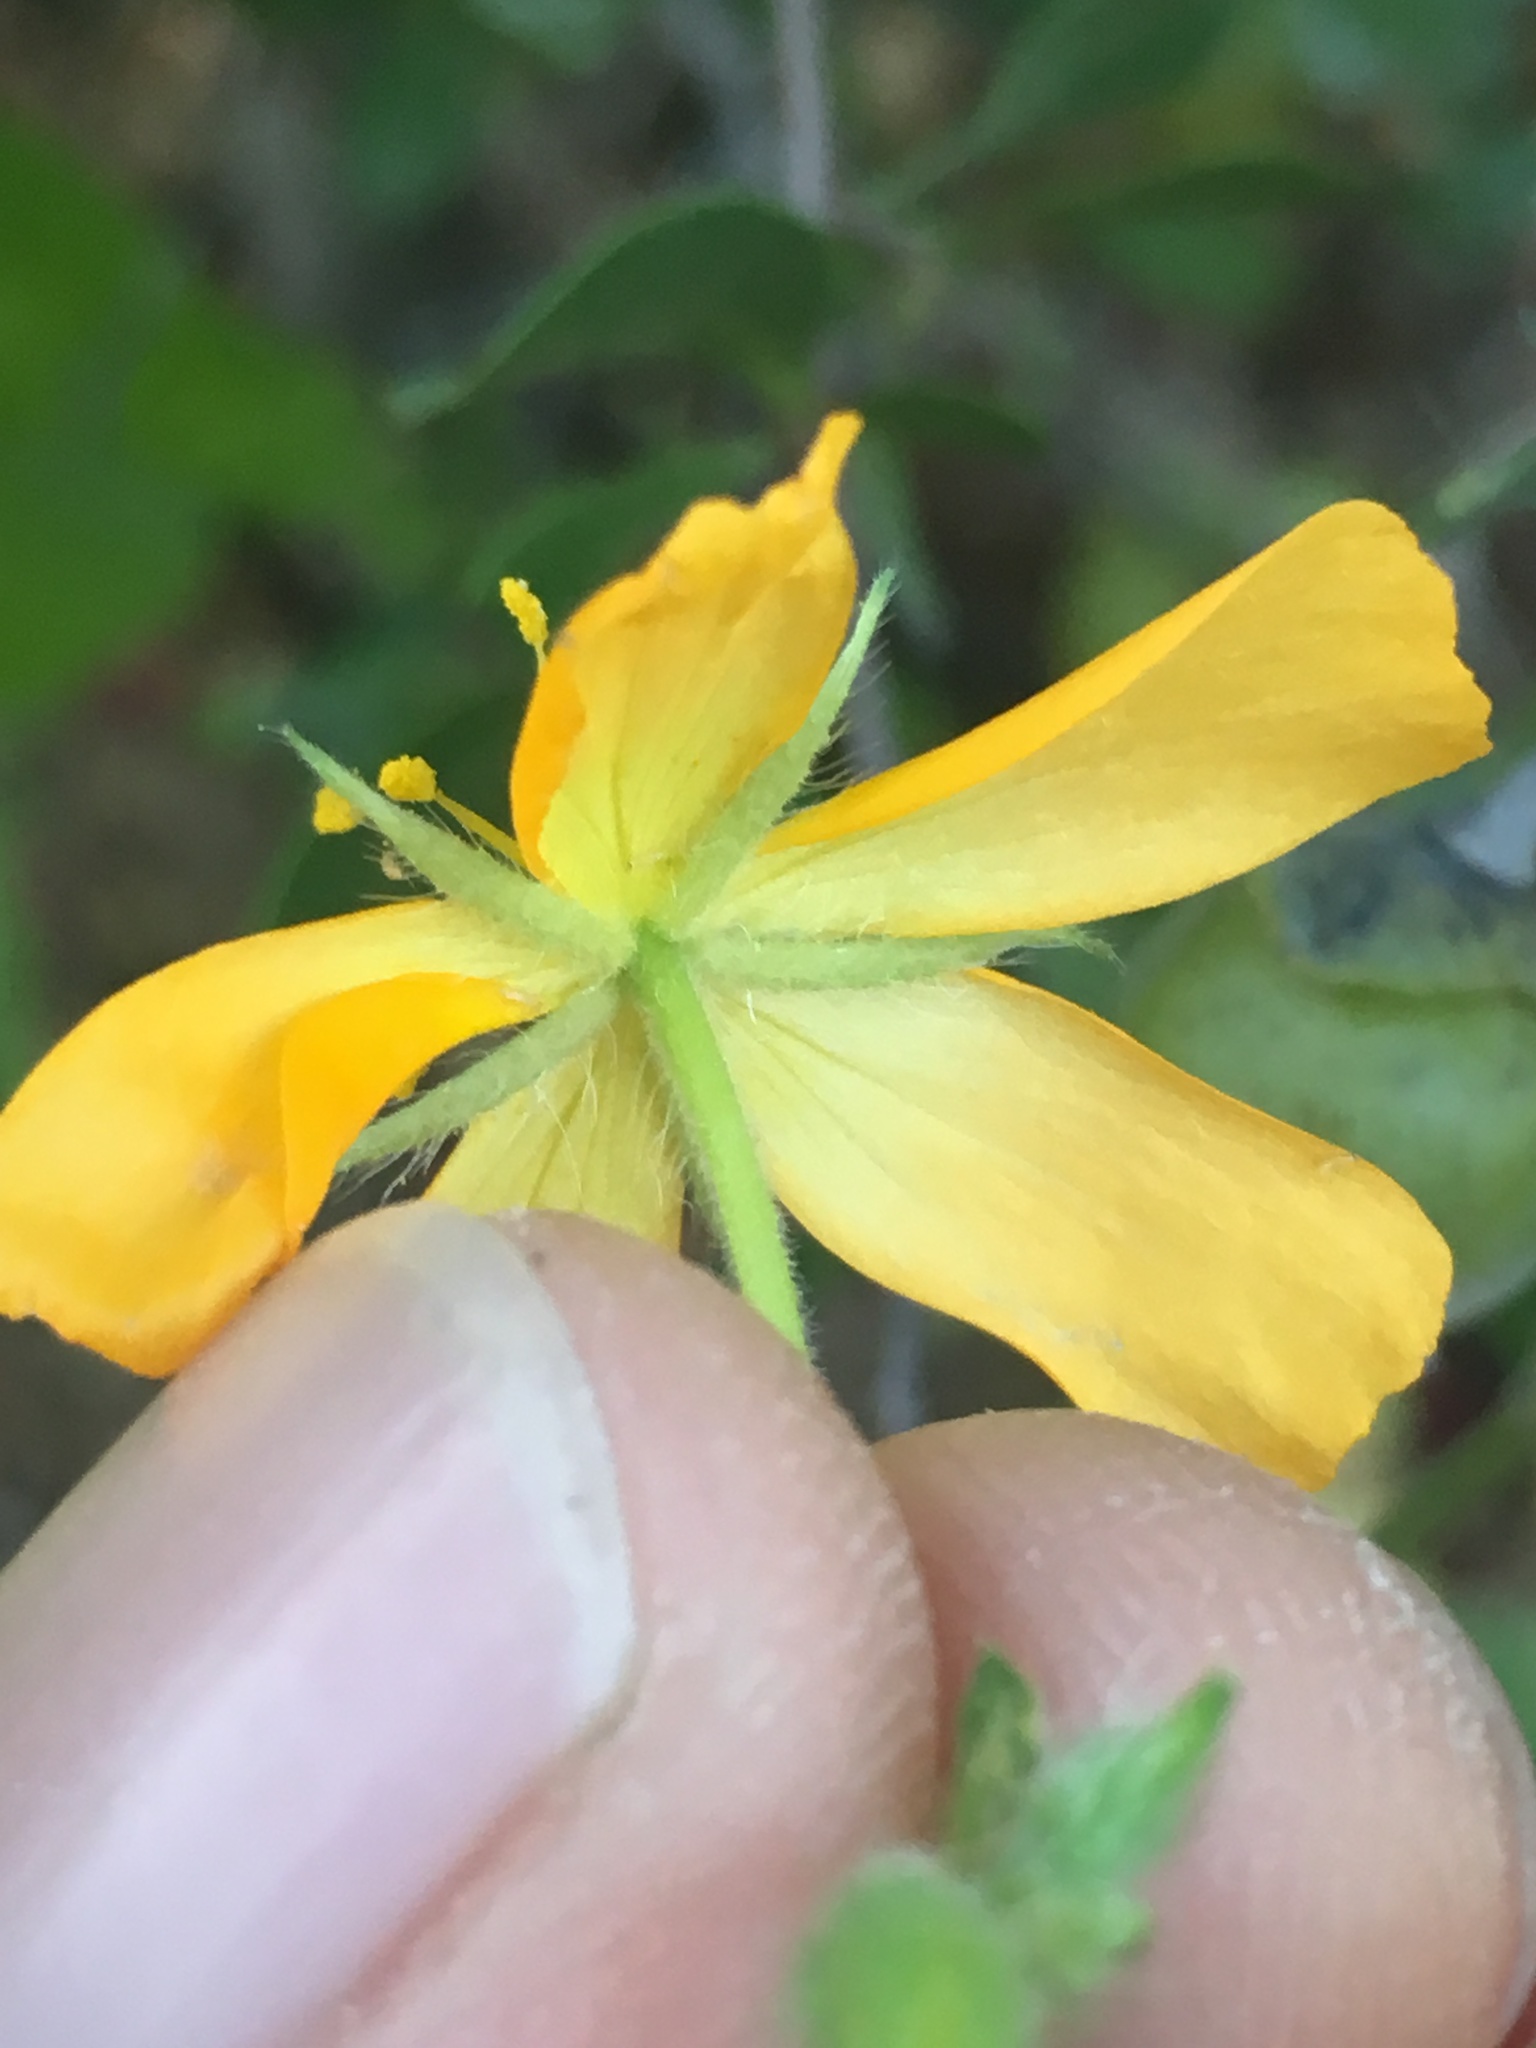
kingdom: Plantae
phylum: Tracheophyta
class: Magnoliopsida
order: Zygophyllales
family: Zygophyllaceae
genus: Kallstroemia
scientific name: Kallstroemia peninsularis
